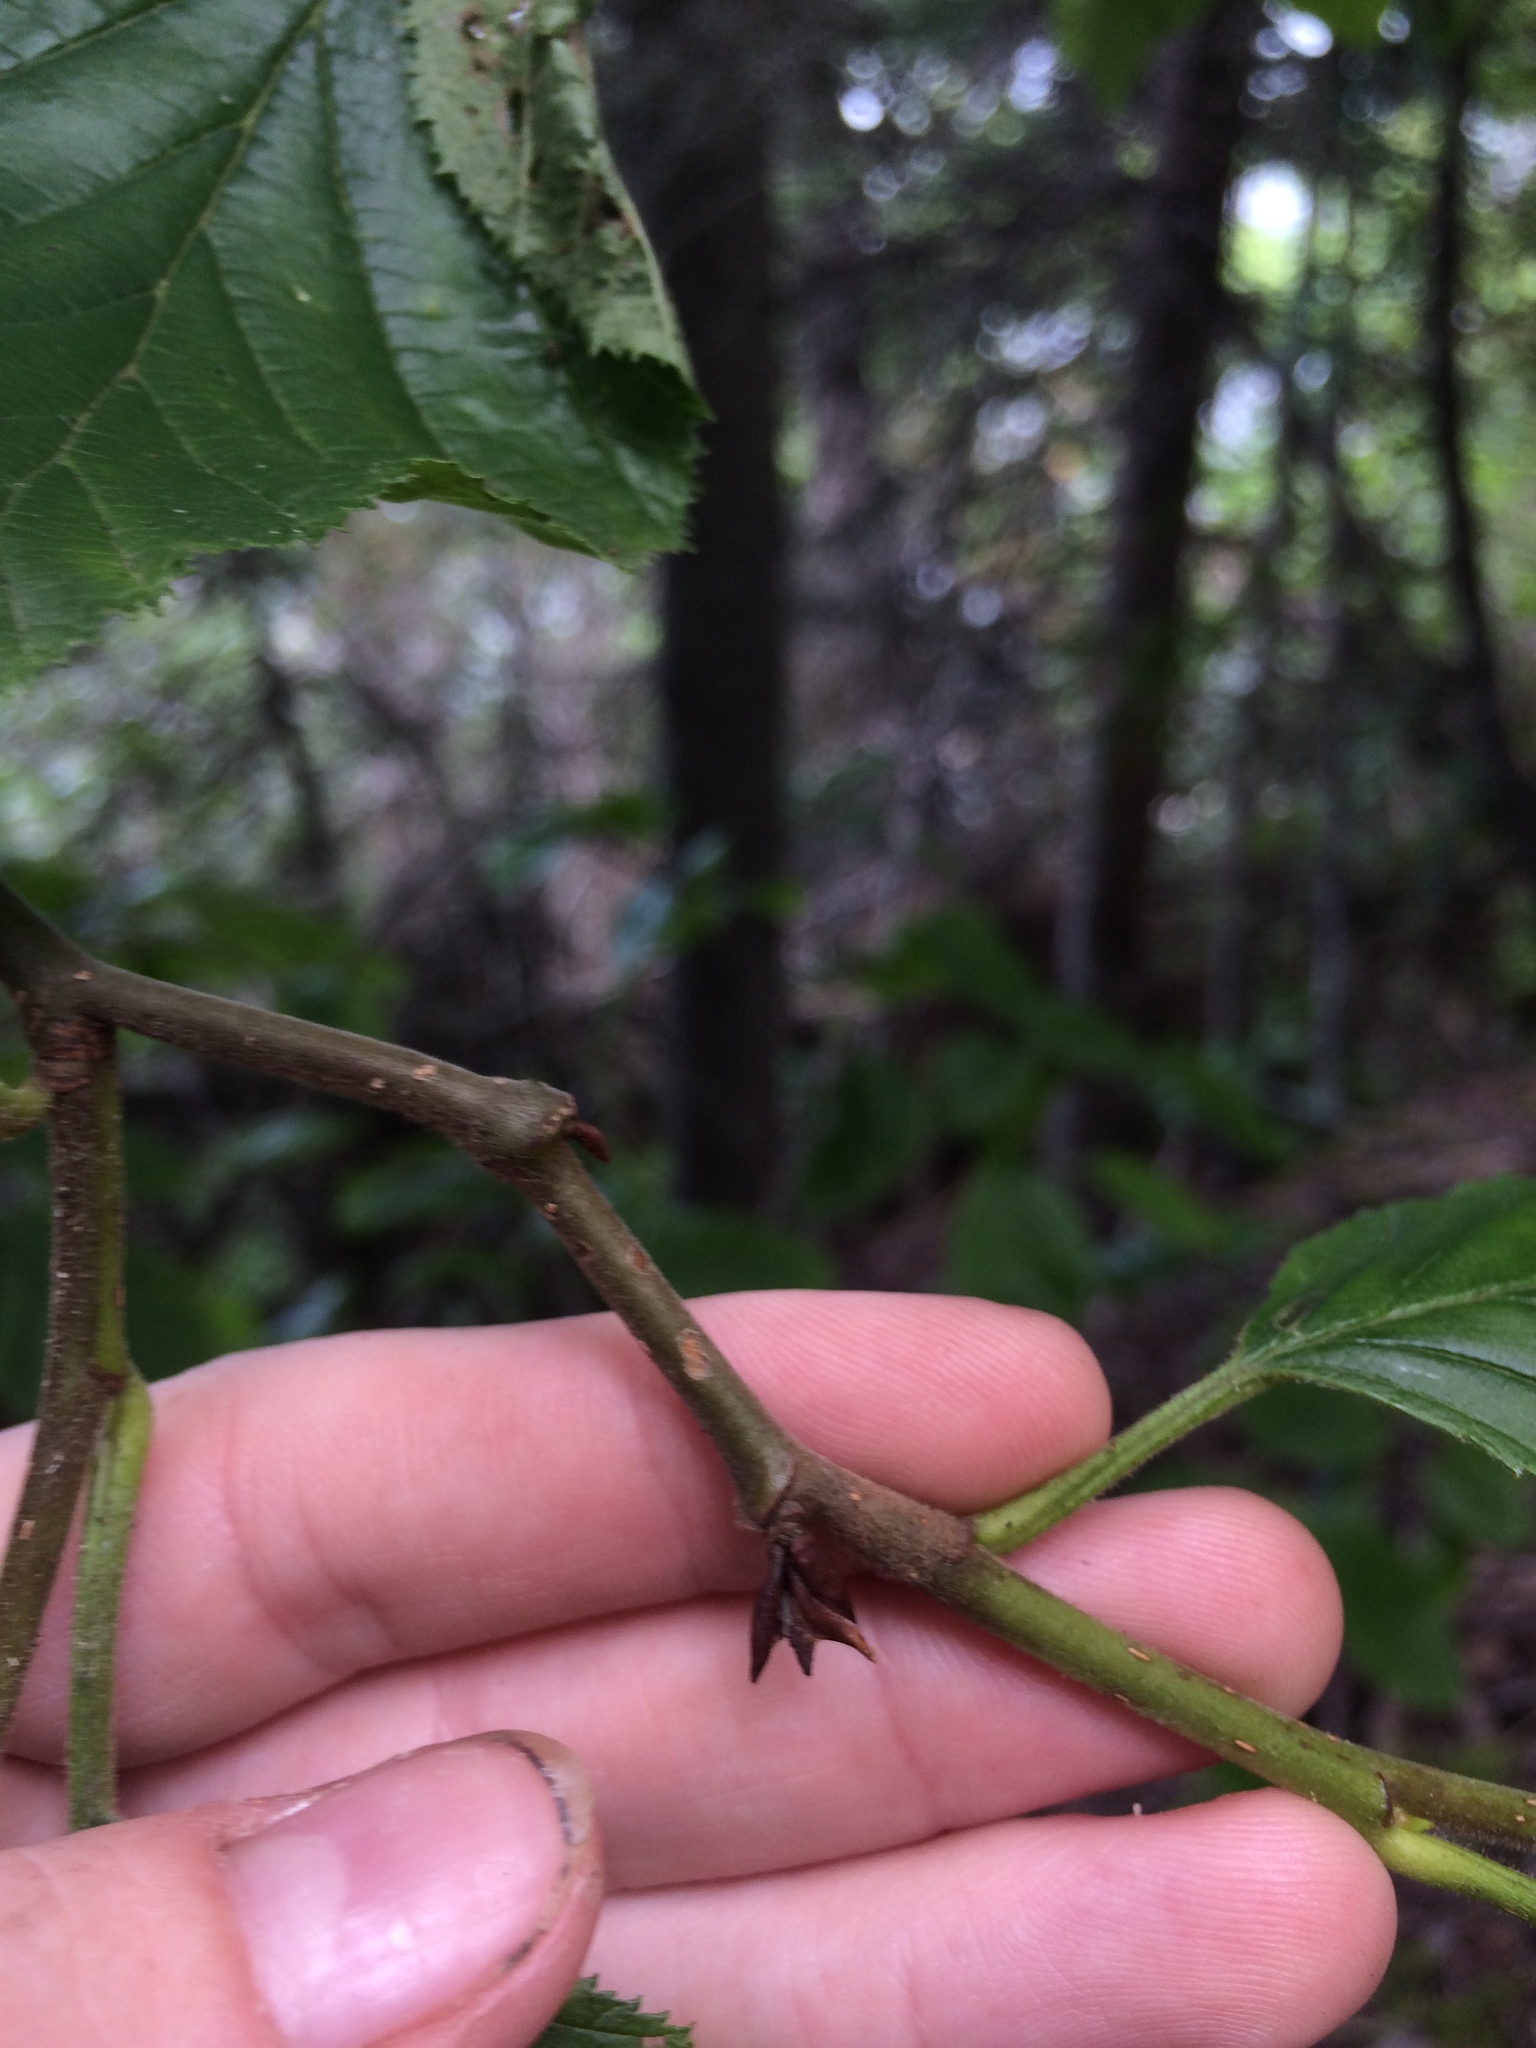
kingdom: Plantae
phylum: Tracheophyta
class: Magnoliopsida
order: Fagales
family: Betulaceae
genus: Alnus
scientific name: Alnus alnobetula
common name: Green alder
